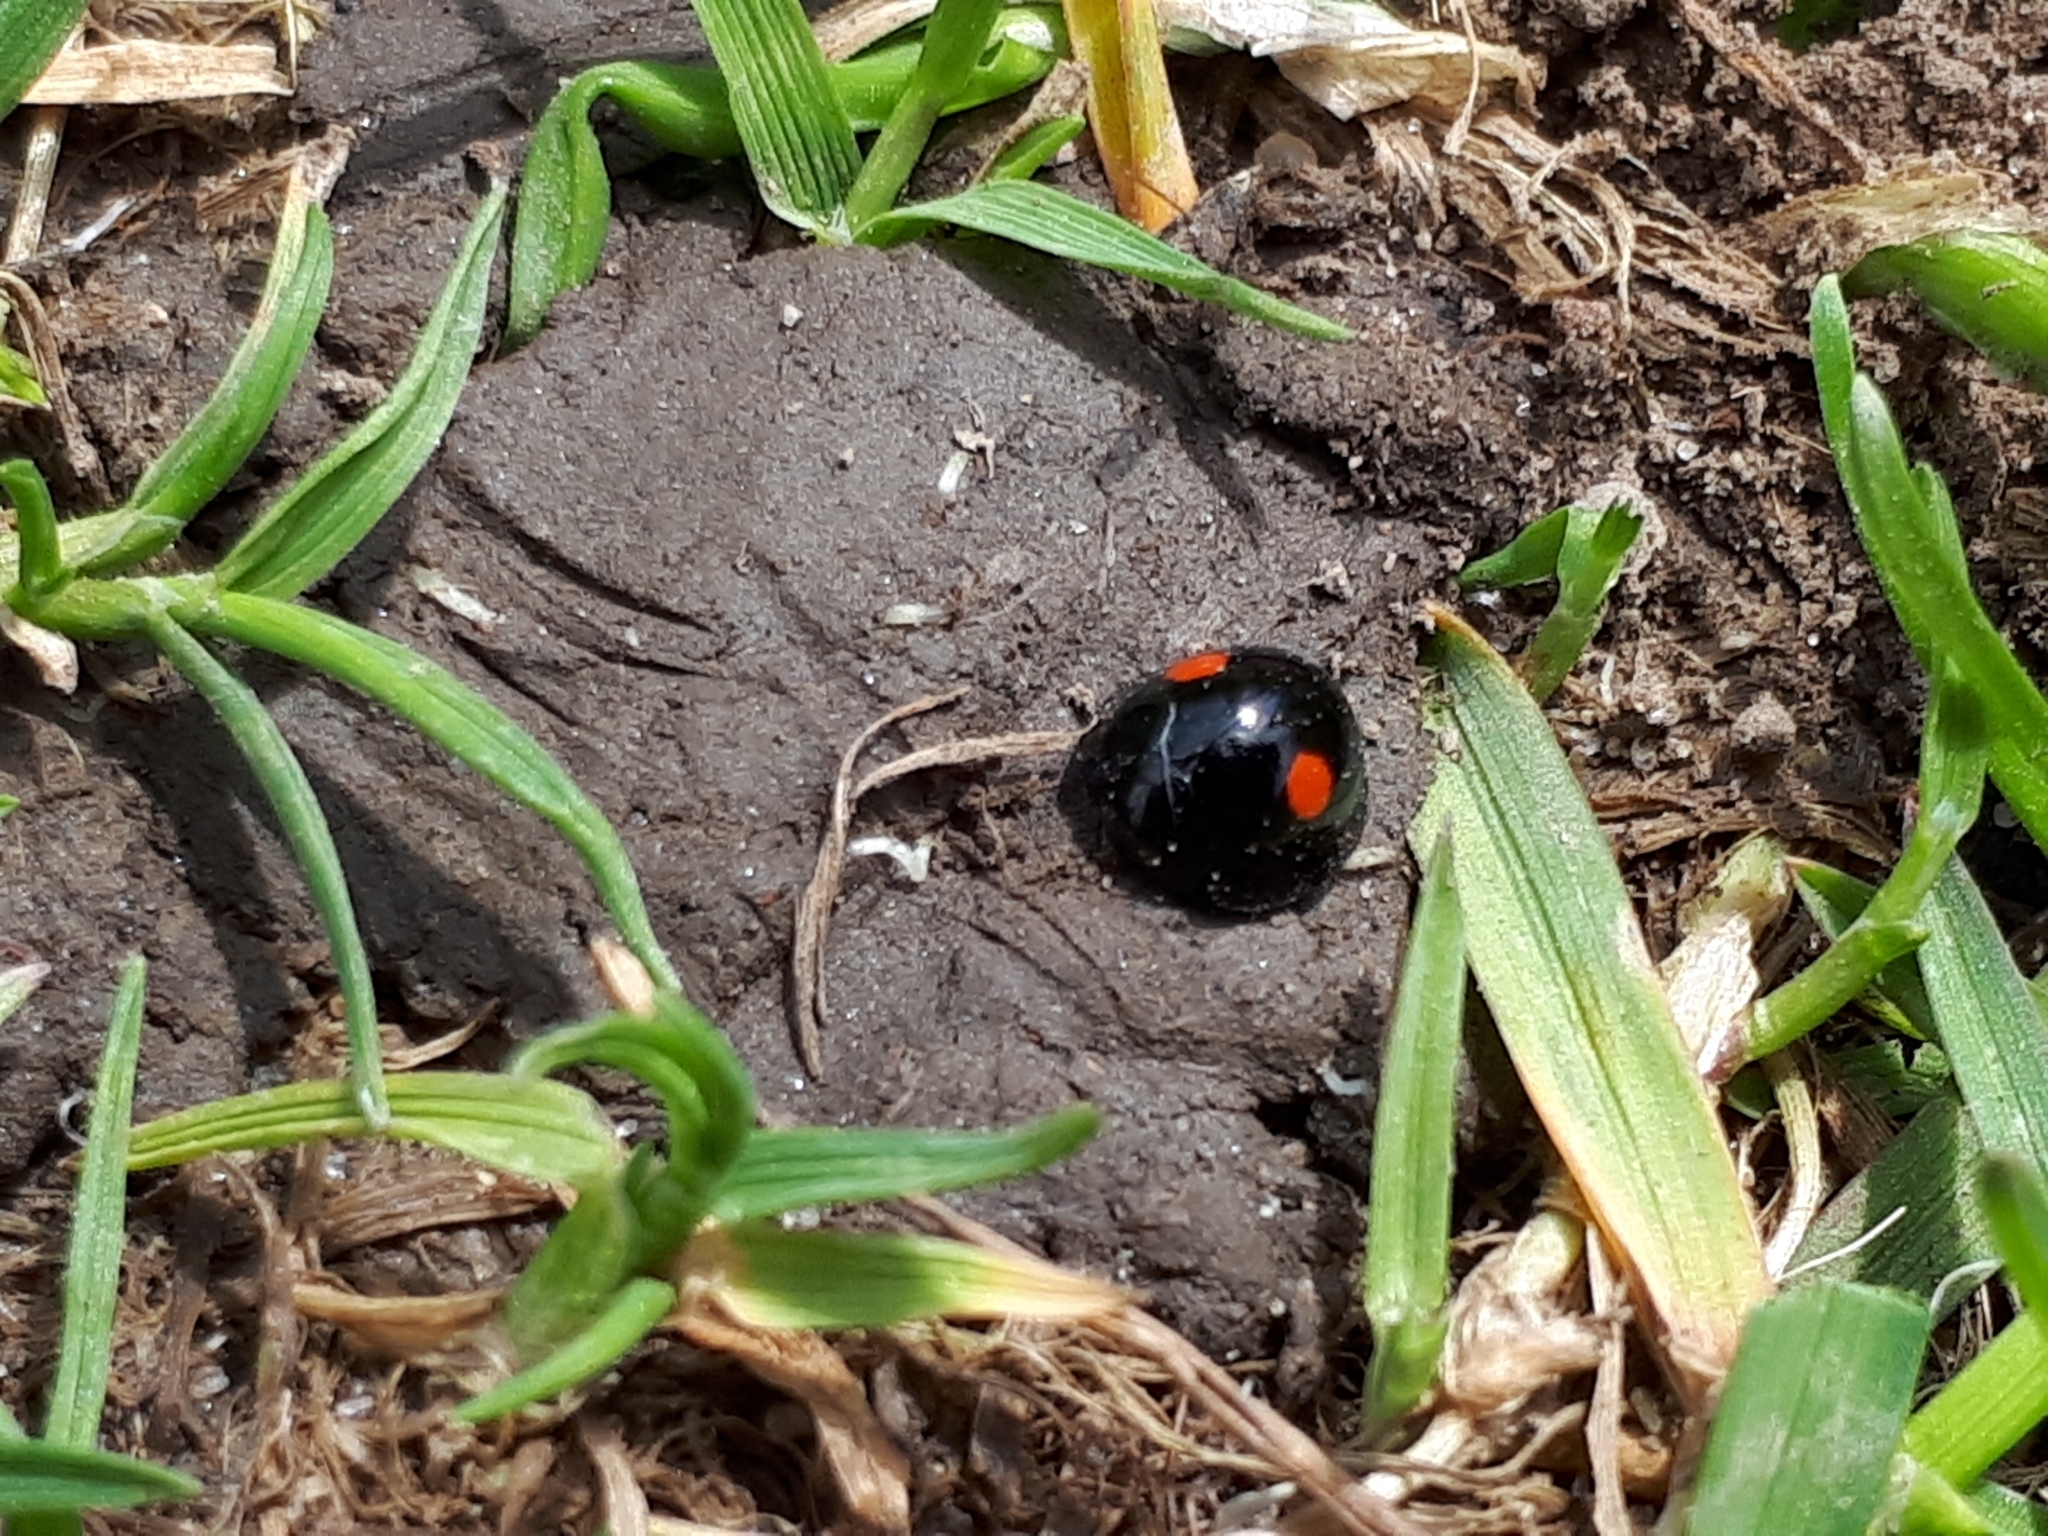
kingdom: Animalia
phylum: Arthropoda
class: Insecta
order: Coleoptera
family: Coccinellidae
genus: Chilocorus
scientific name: Chilocorus stigma
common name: Twicestabbed lady beetle
